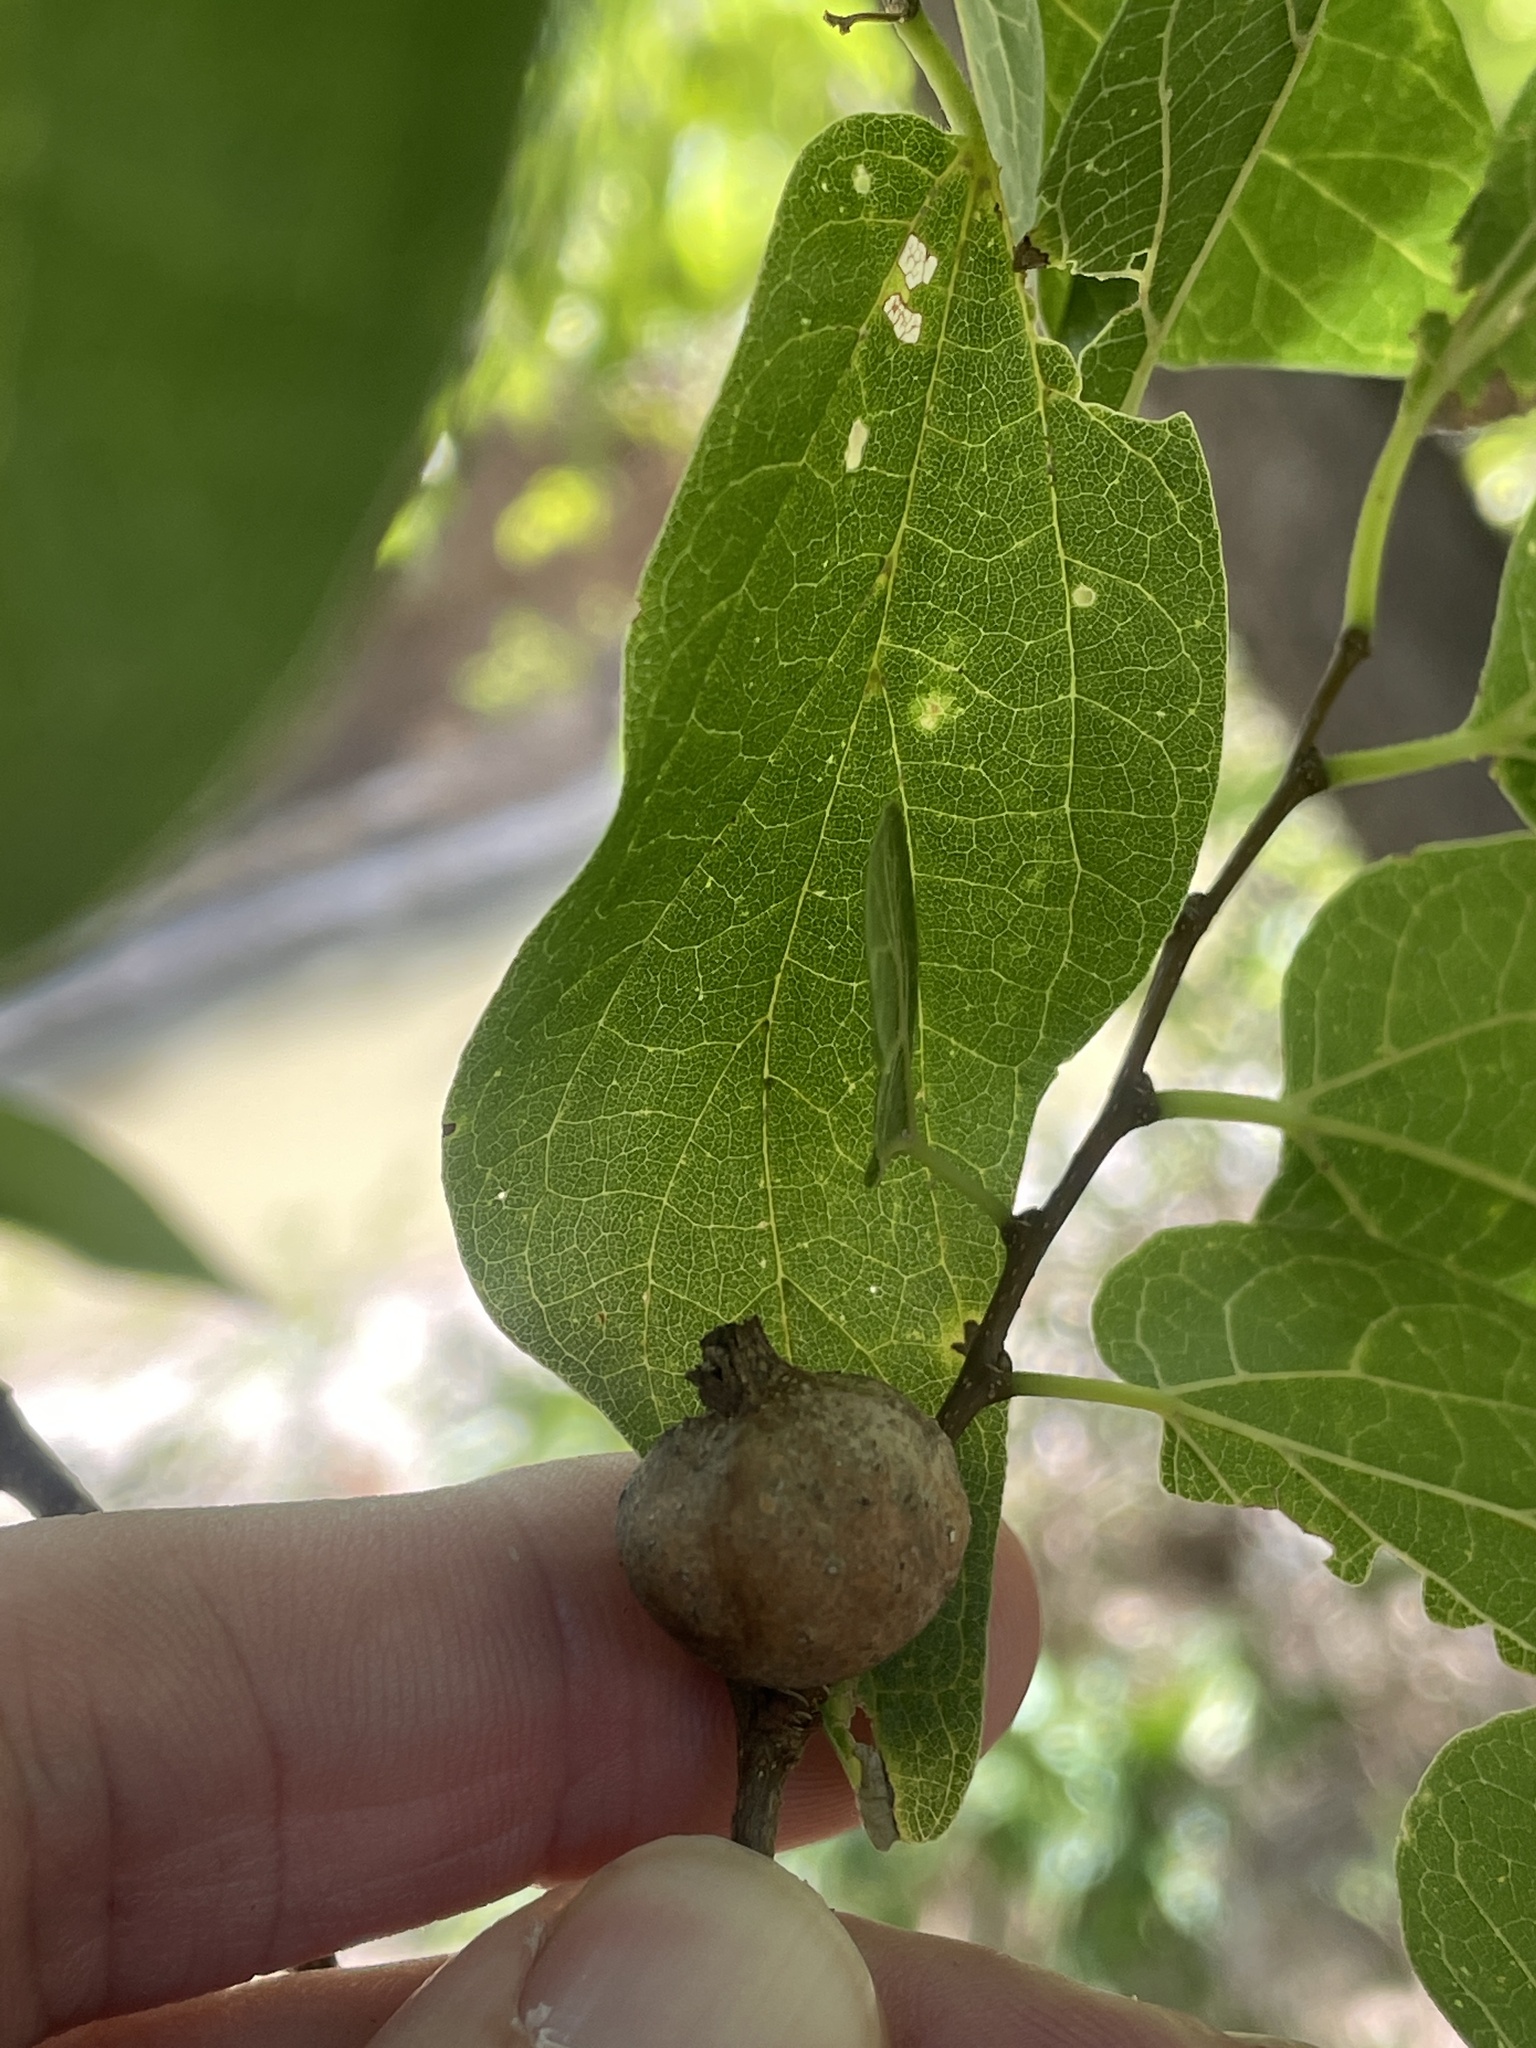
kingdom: Animalia
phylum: Arthropoda
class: Insecta
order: Hemiptera
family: Aphalaridae
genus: Pachypsylla
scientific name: Pachypsylla venusta
